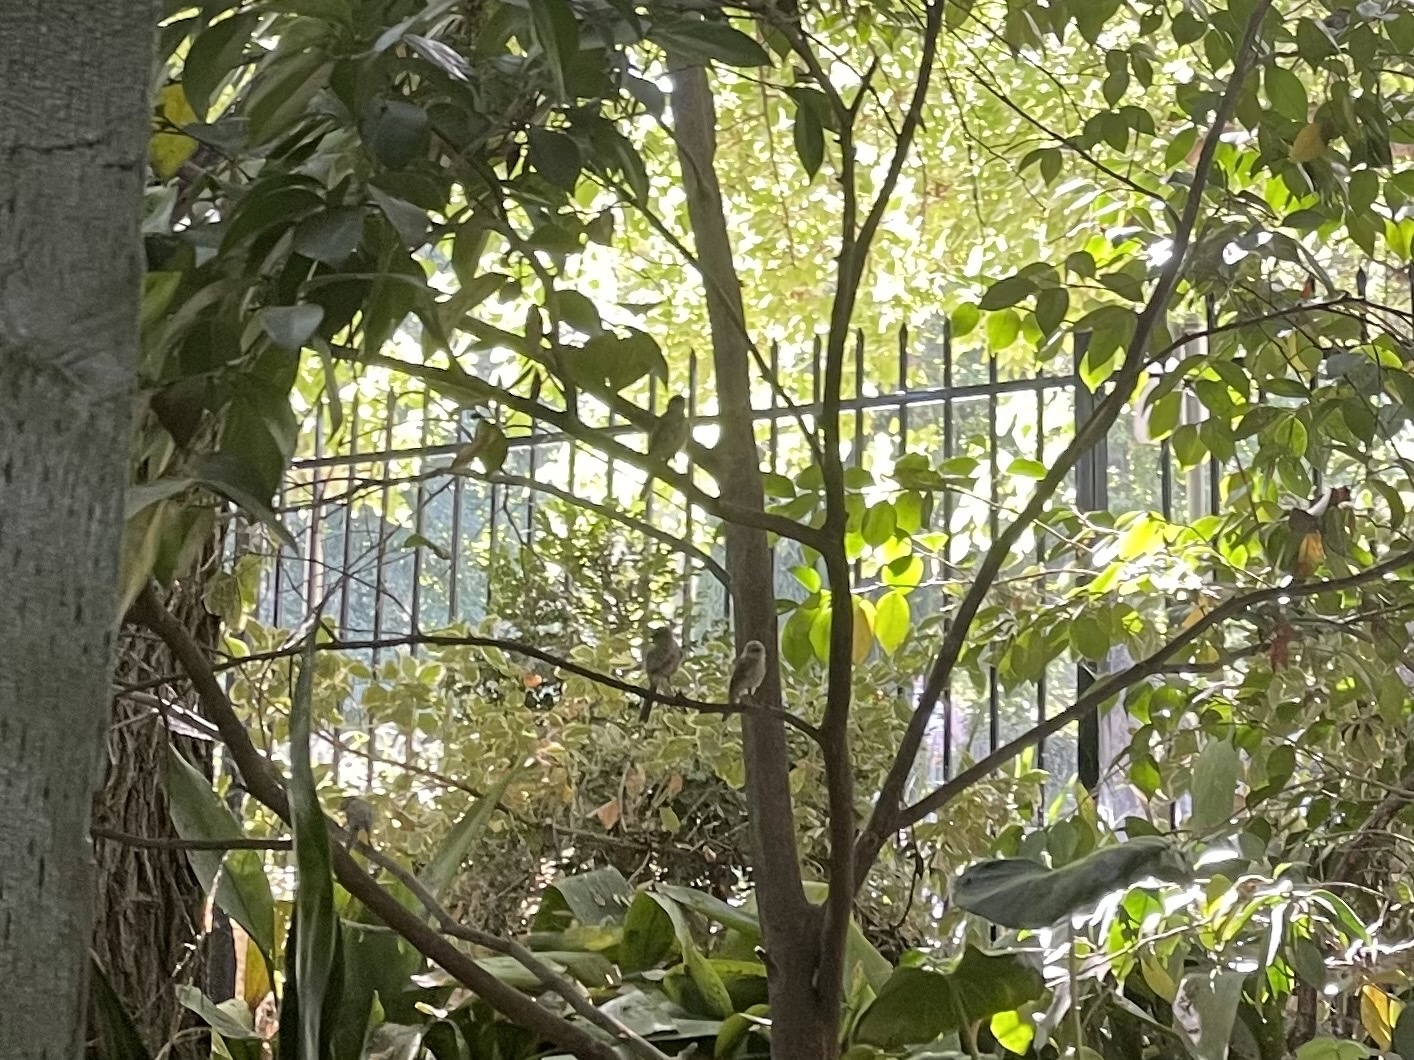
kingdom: Animalia
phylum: Chordata
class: Aves
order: Passeriformes
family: Aegithalidae
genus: Psaltriparus
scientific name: Psaltriparus minimus
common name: American bushtit
